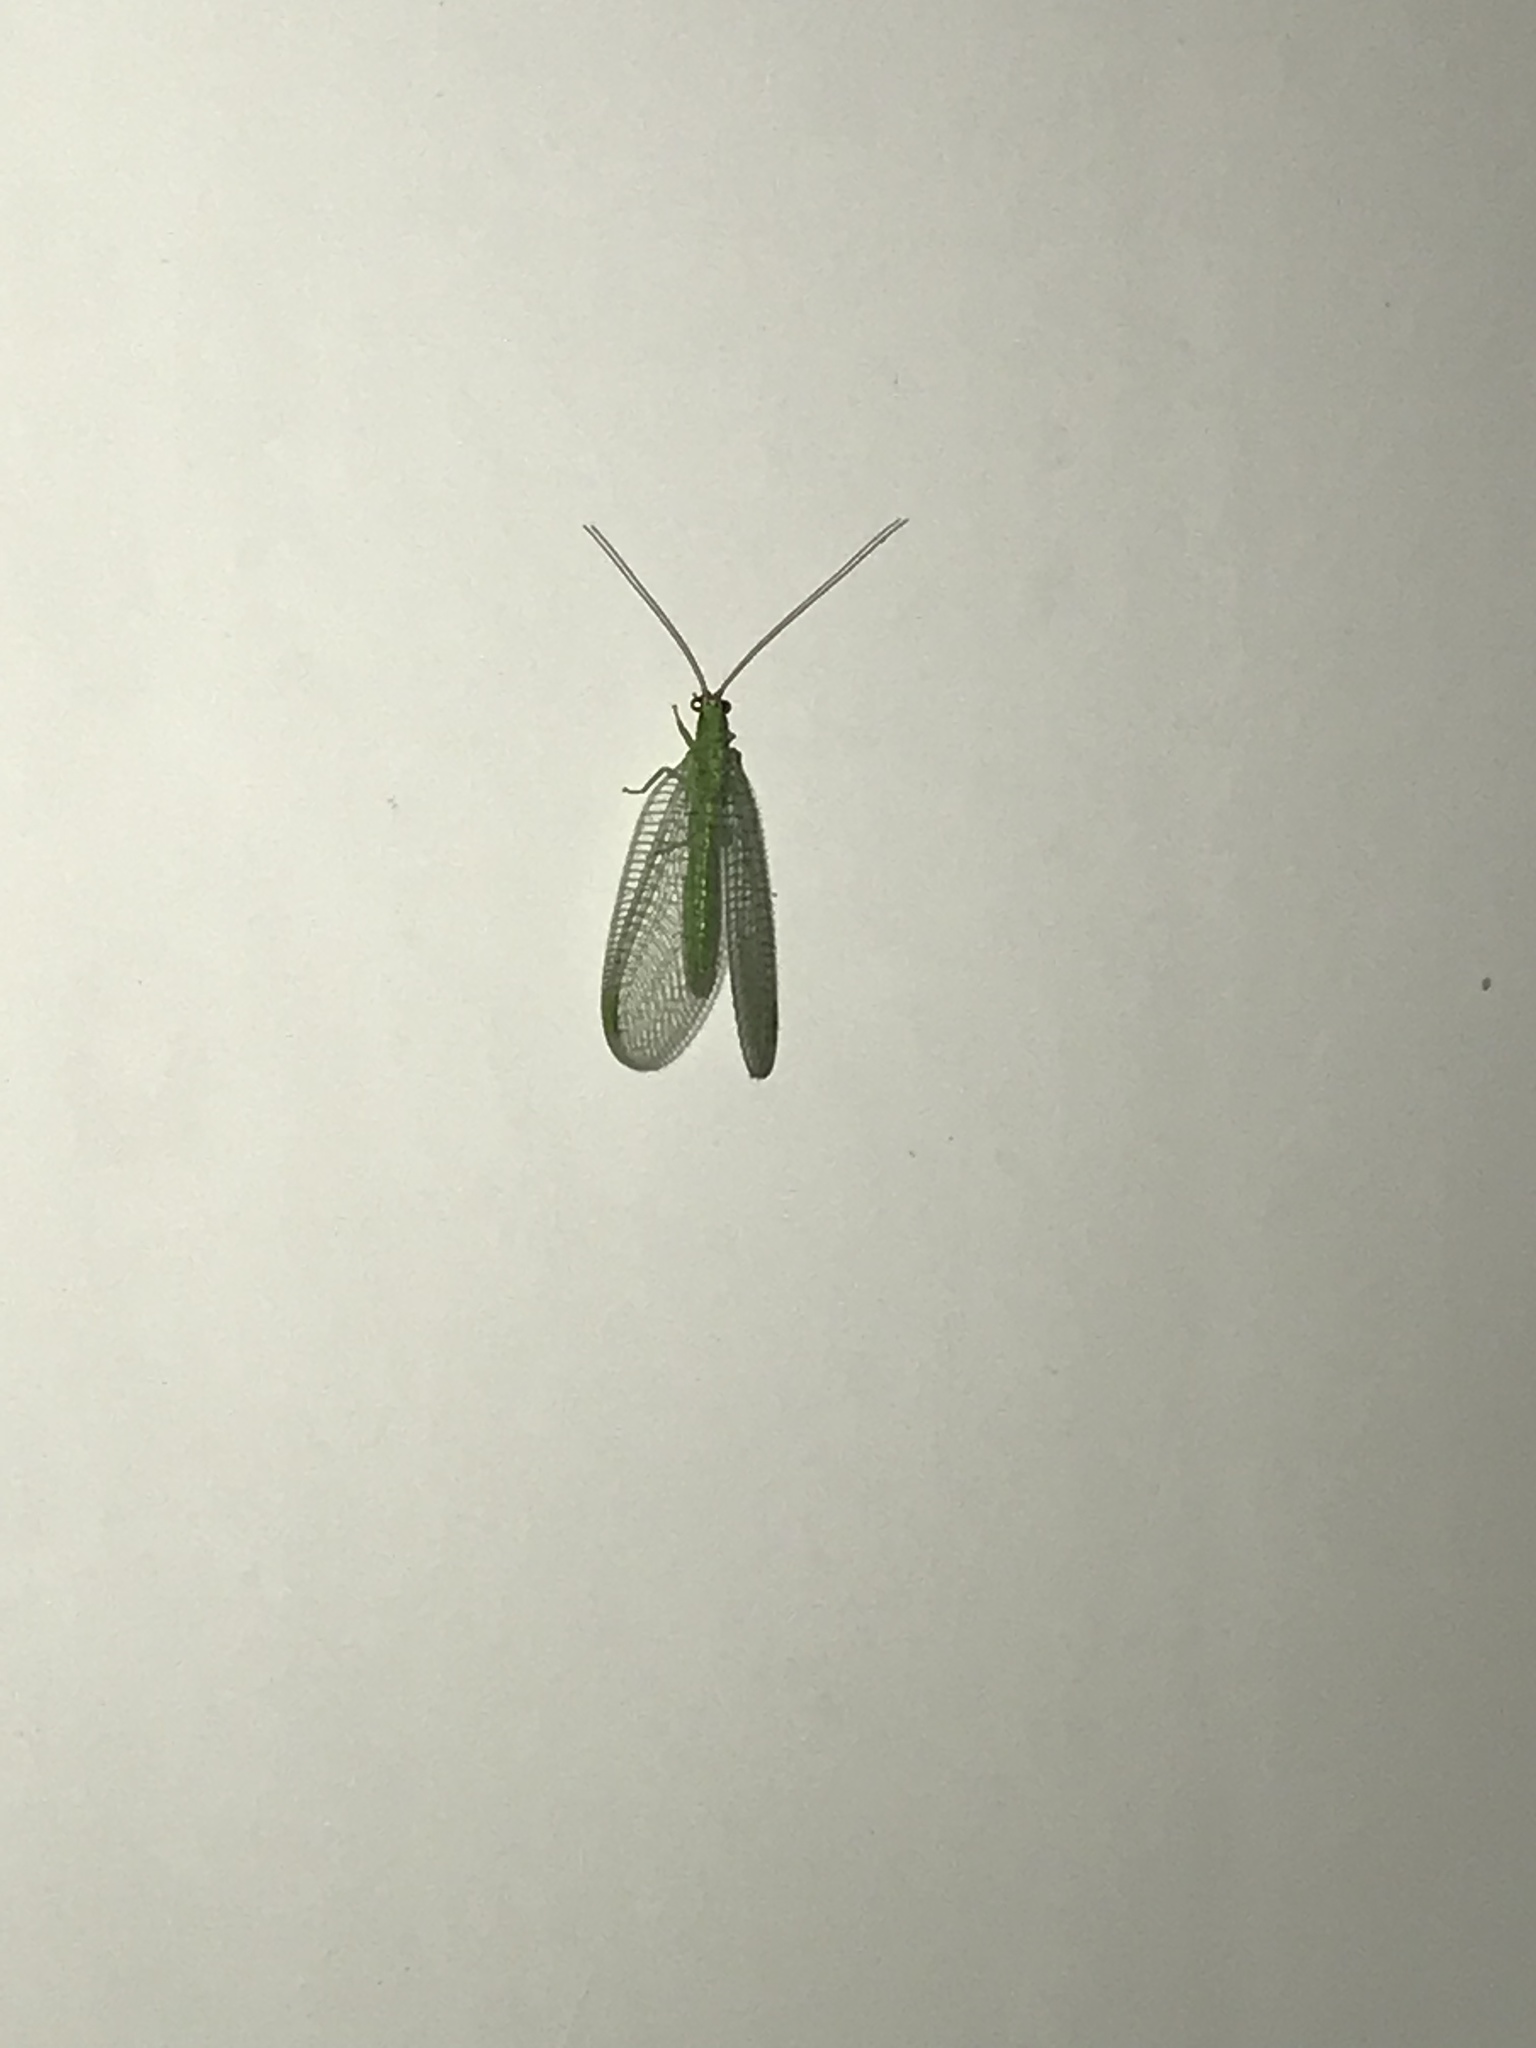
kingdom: Animalia
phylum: Arthropoda
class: Insecta
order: Neuroptera
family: Chrysopidae
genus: Chrysopa
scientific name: Chrysopa oculata
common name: Golden-eyed lacewing
